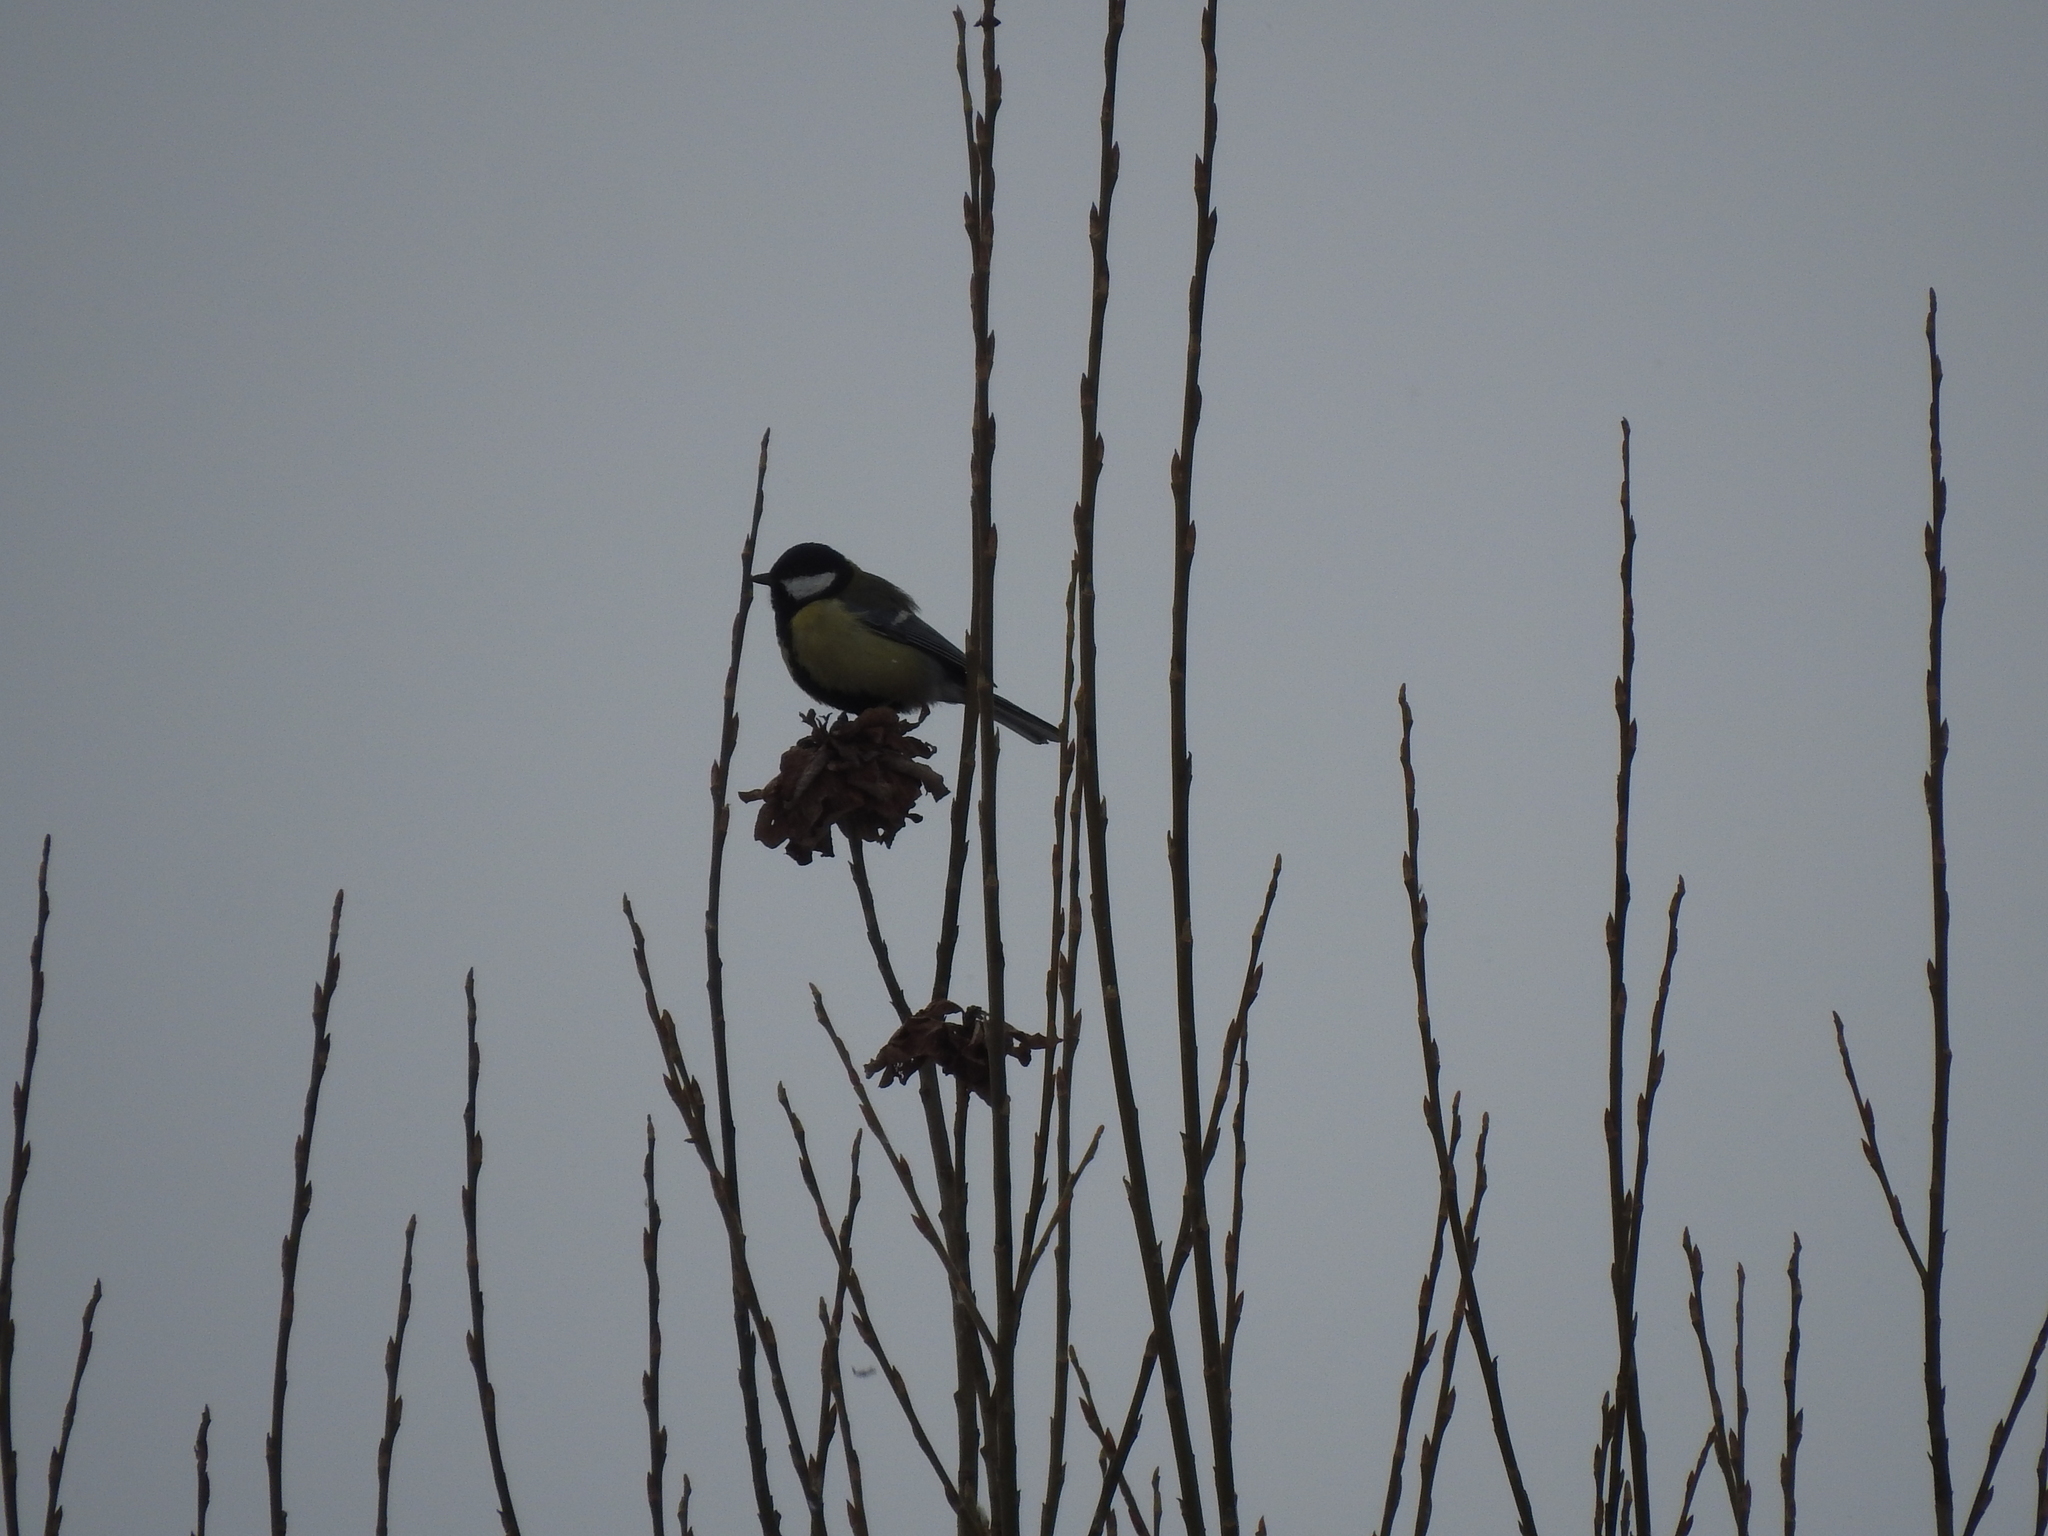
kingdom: Animalia
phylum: Chordata
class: Aves
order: Passeriformes
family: Paridae
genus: Parus
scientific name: Parus major
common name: Great tit
